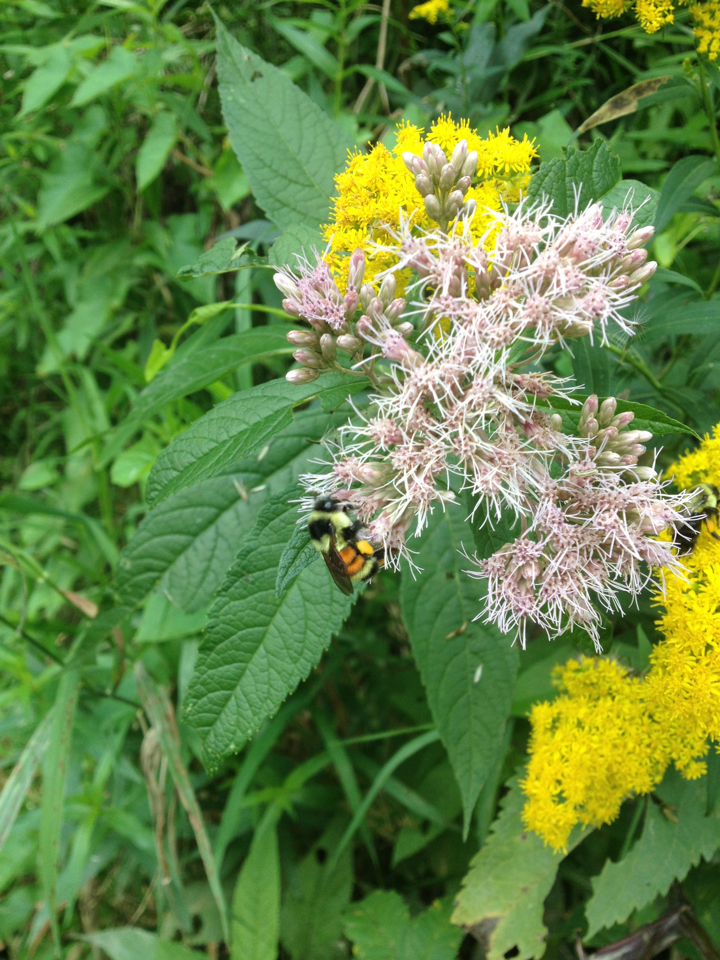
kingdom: Animalia
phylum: Arthropoda
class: Insecta
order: Hymenoptera
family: Apidae
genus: Bombus
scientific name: Bombus ternarius
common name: Tri-colored bumble bee
